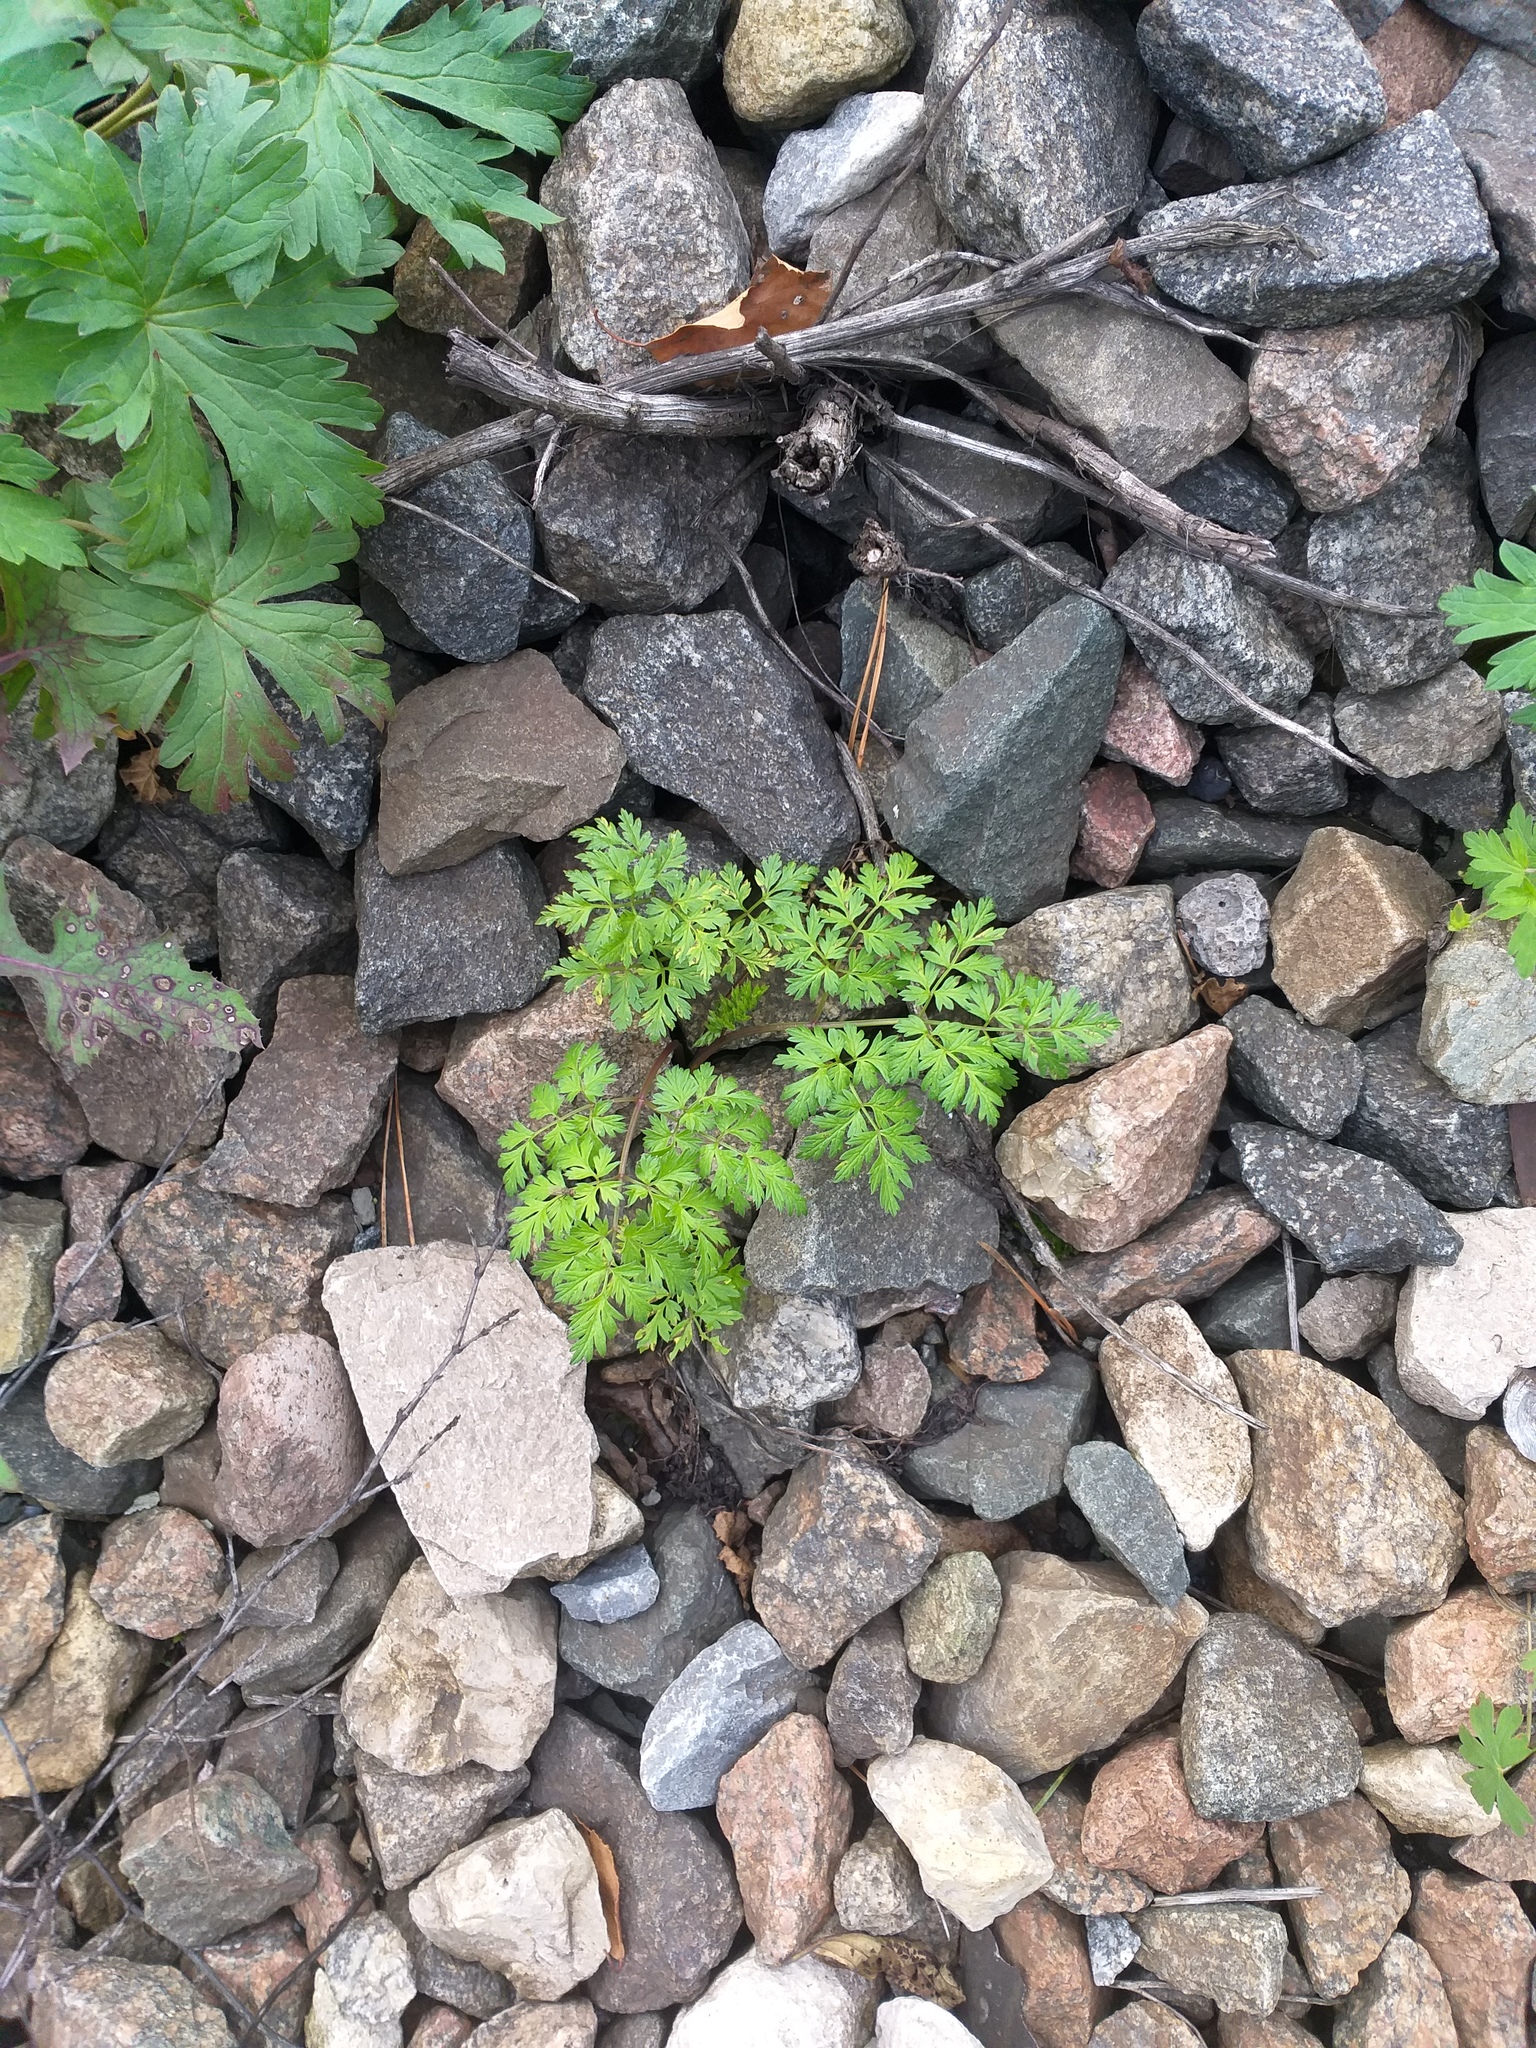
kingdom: Plantae
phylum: Tracheophyta
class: Magnoliopsida
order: Apiales
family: Apiaceae
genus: Anthriscus
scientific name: Anthriscus sylvestris
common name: Cow parsley
